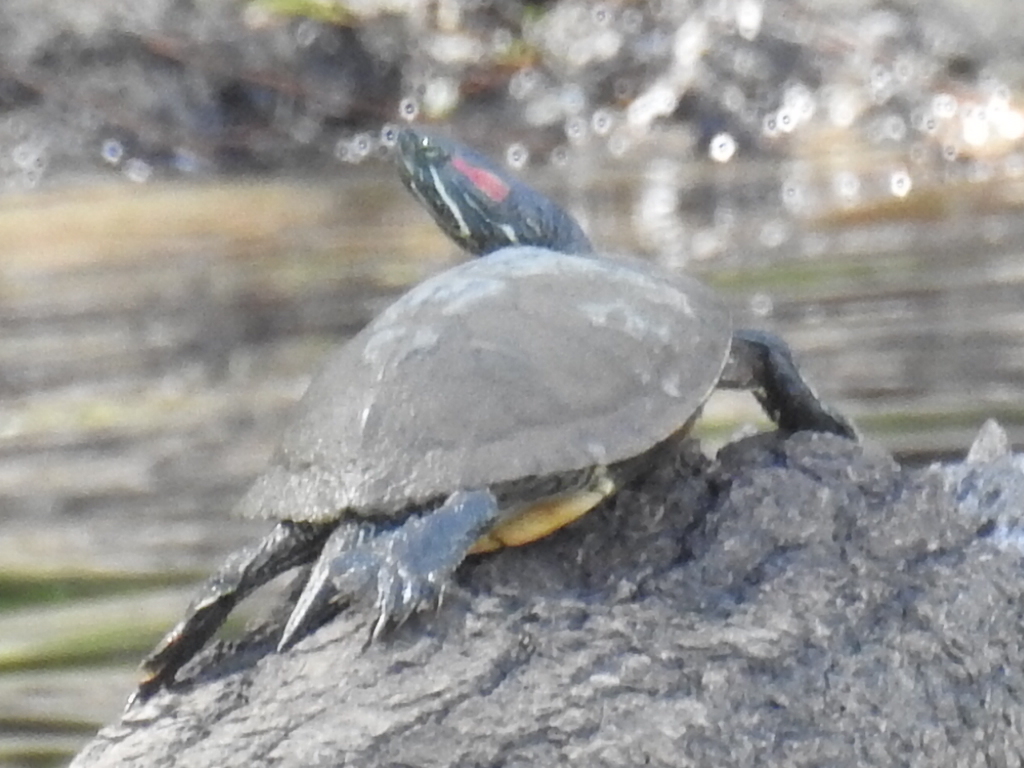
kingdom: Animalia
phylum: Chordata
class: Testudines
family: Emydidae
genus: Trachemys
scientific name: Trachemys scripta
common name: Slider
